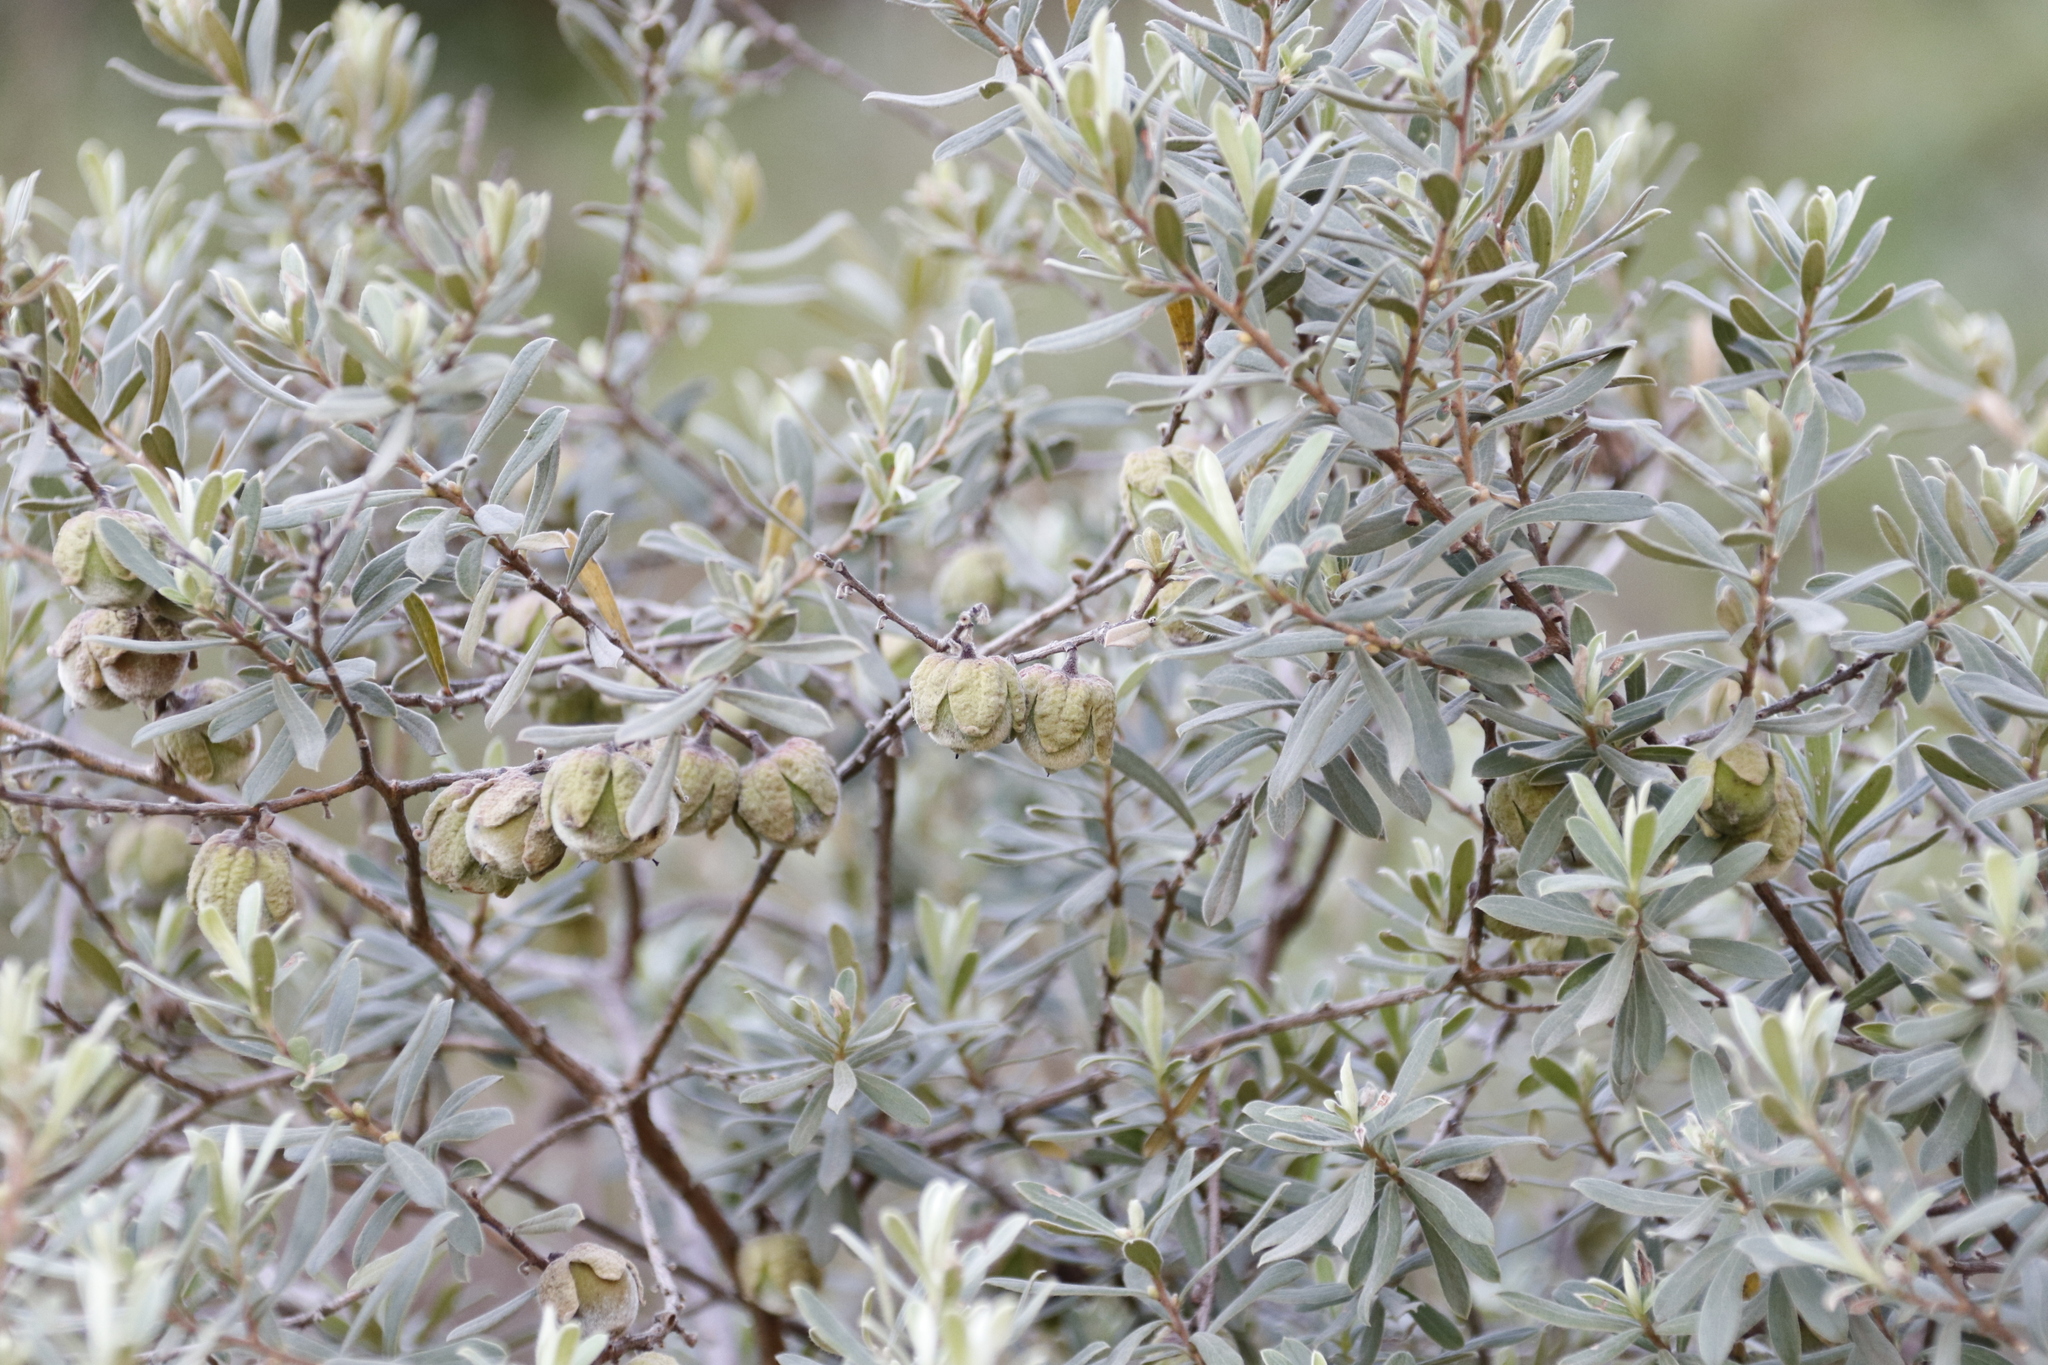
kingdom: Plantae
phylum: Tracheophyta
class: Magnoliopsida
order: Ericales
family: Ebenaceae
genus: Diospyros
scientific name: Diospyros pubescens
